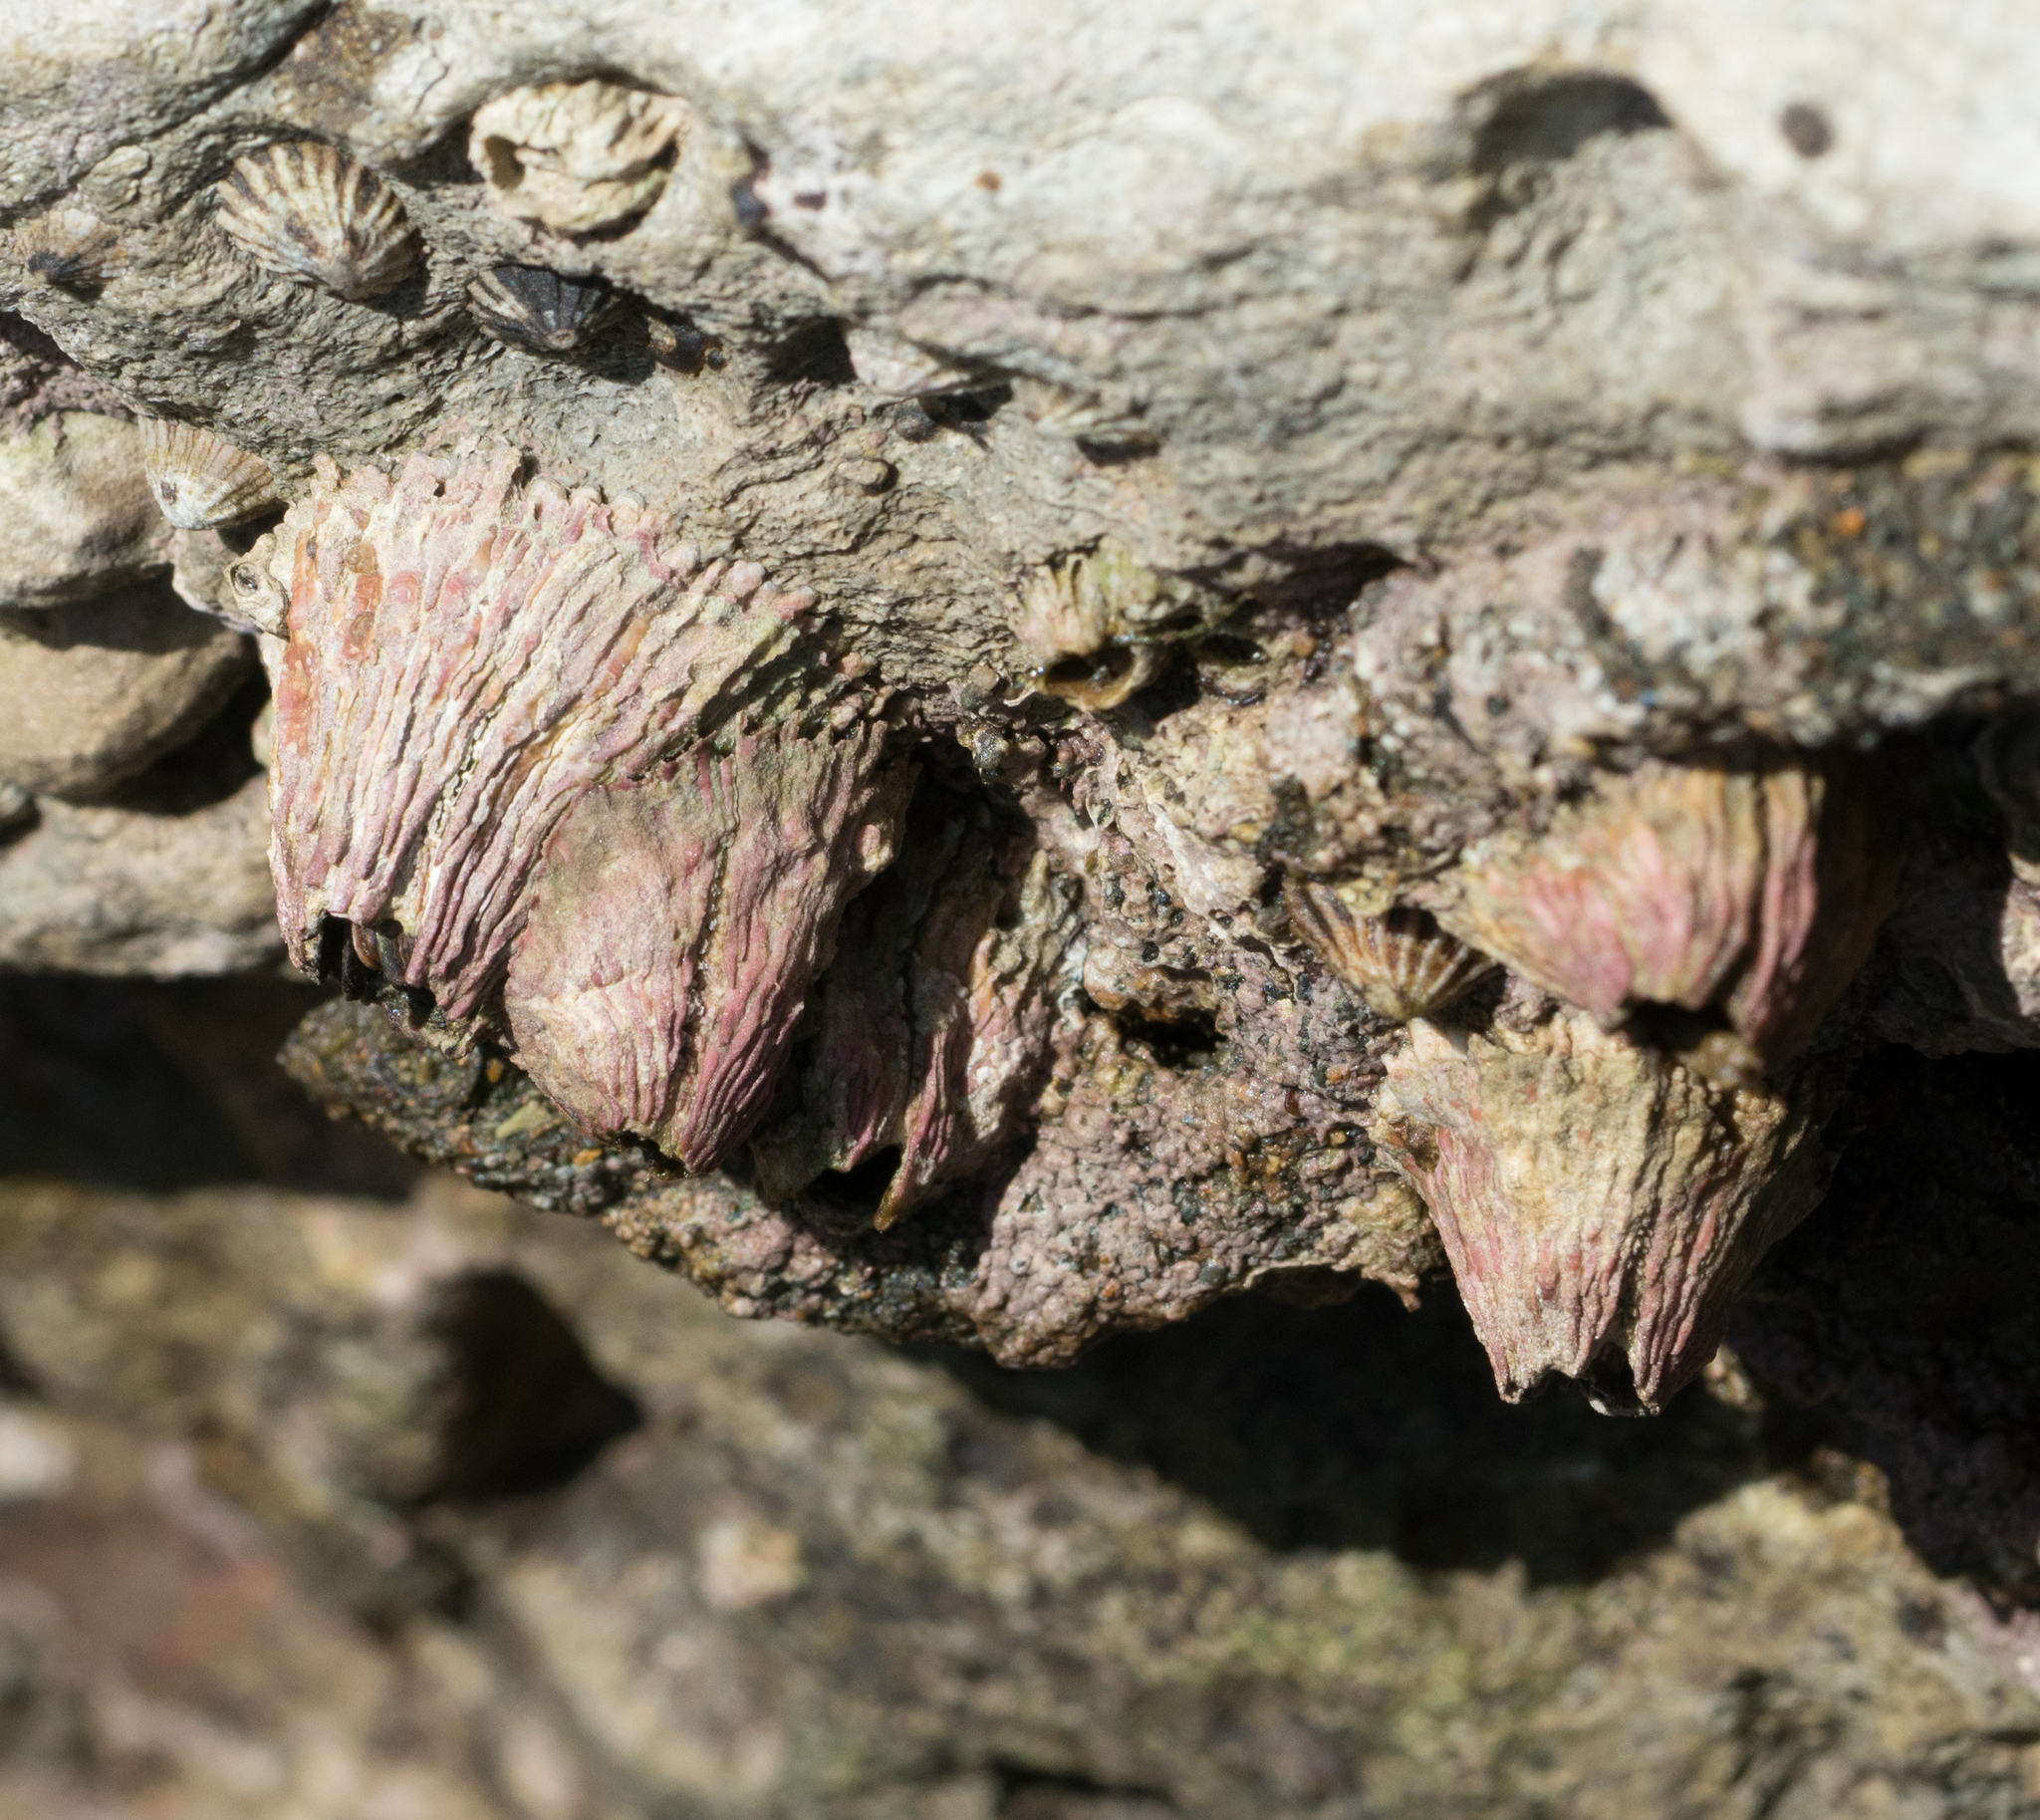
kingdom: Animalia
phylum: Arthropoda
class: Maxillopoda
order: Sessilia
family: Tetraclitidae
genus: Tetraclita
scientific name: Tetraclita rubescens
